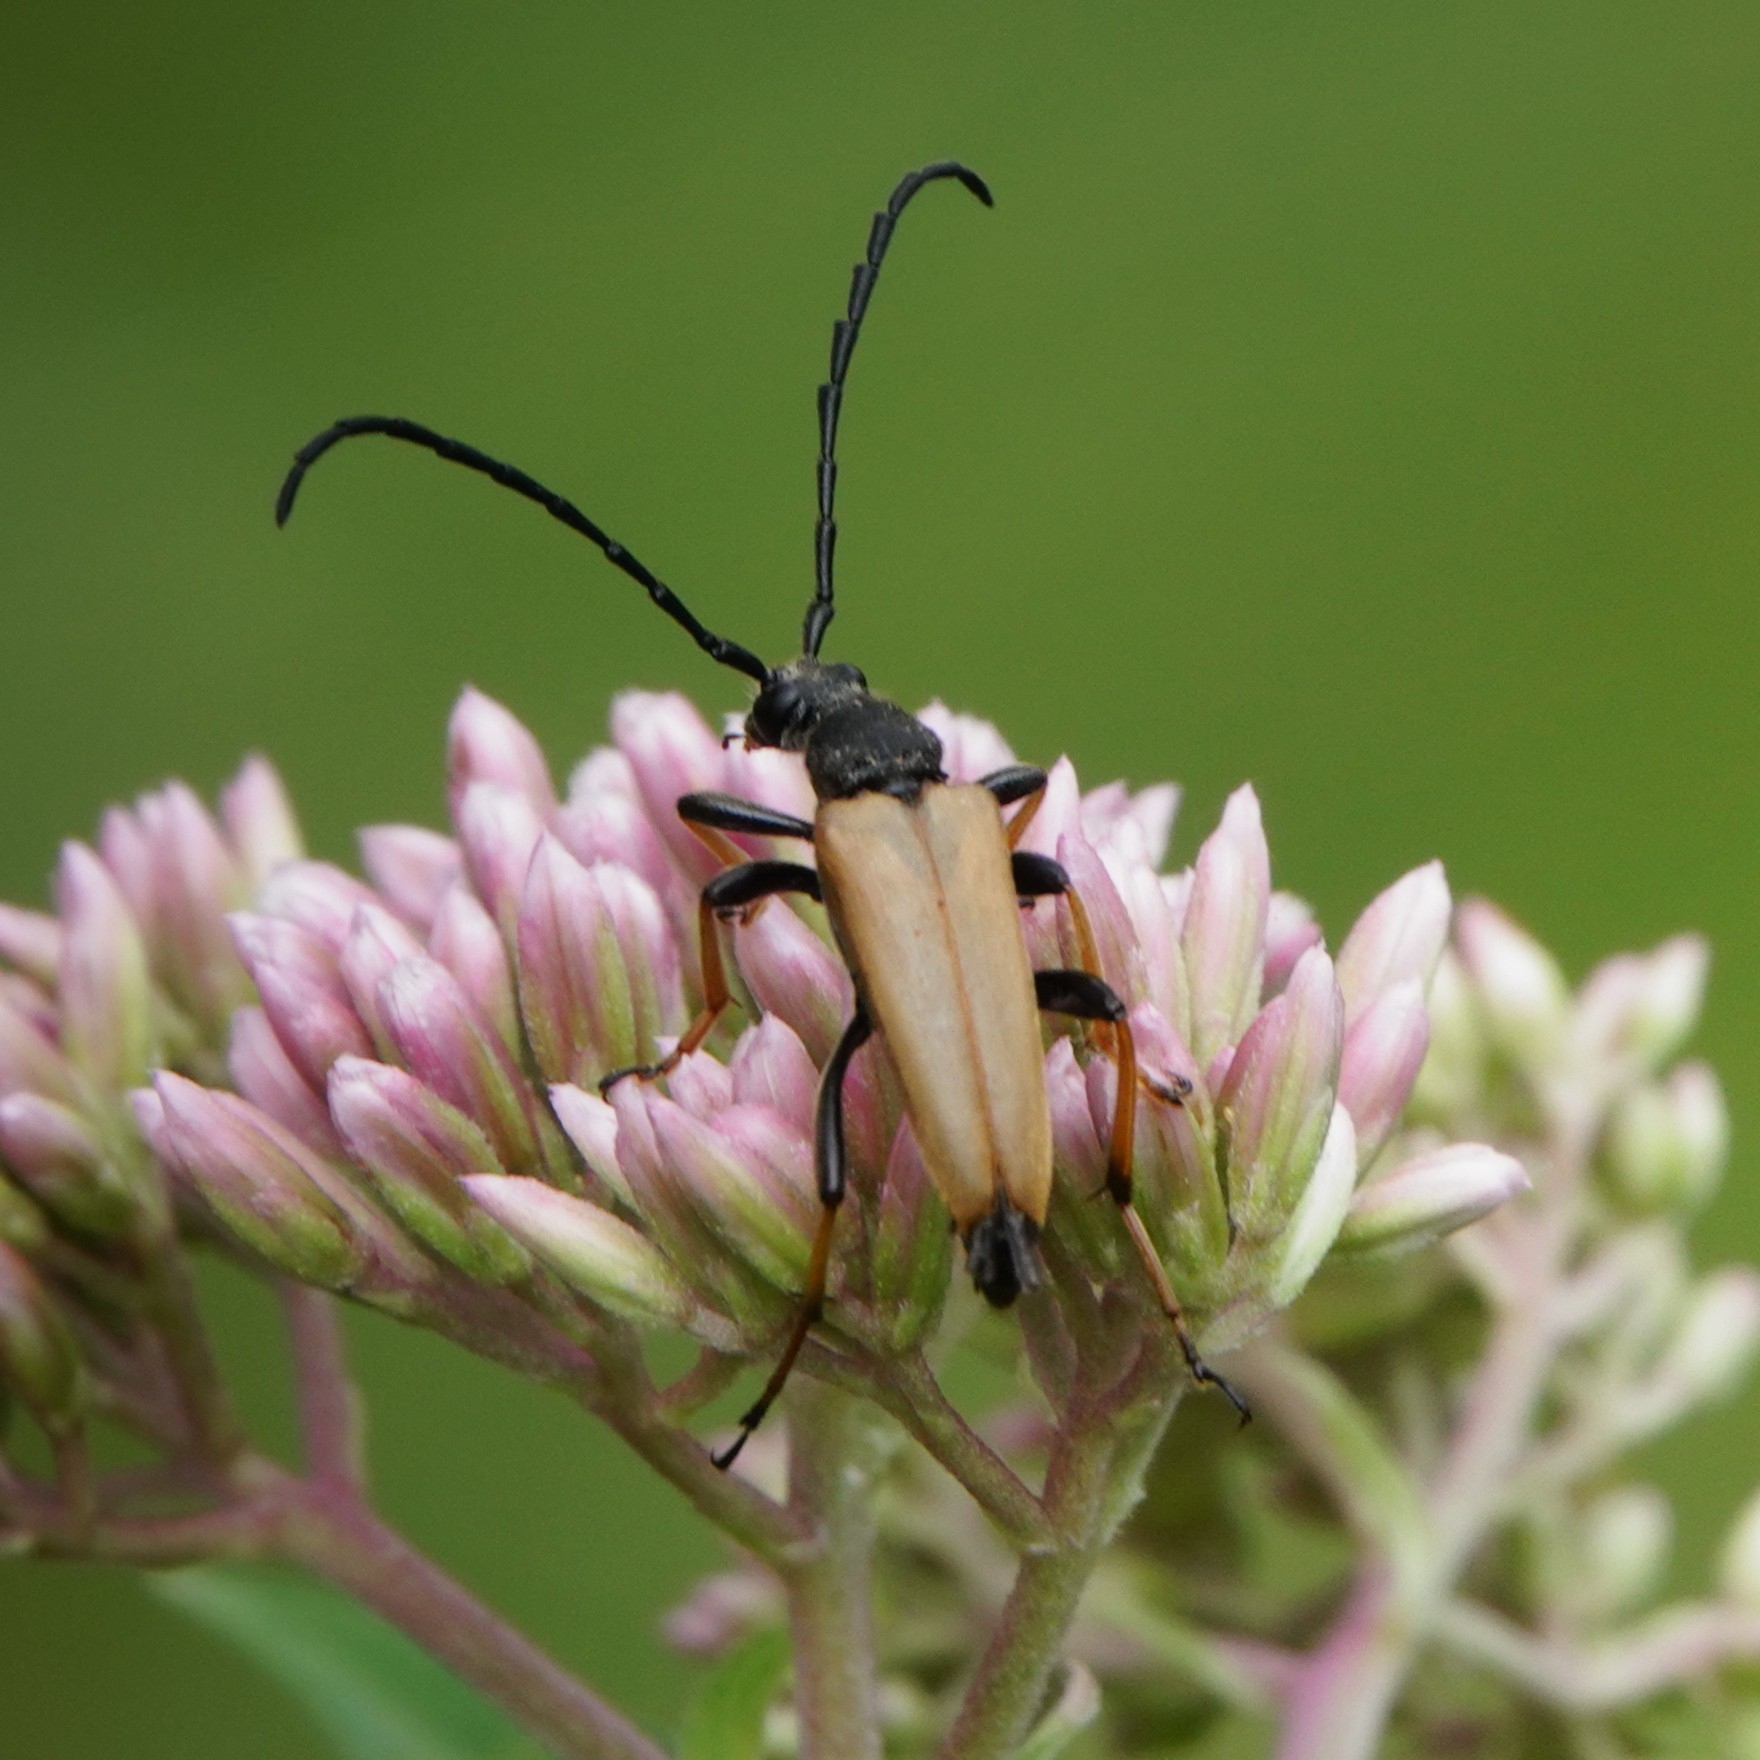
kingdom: Animalia
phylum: Arthropoda
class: Insecta
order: Coleoptera
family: Cerambycidae
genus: Stictoleptura
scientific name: Stictoleptura rubra
